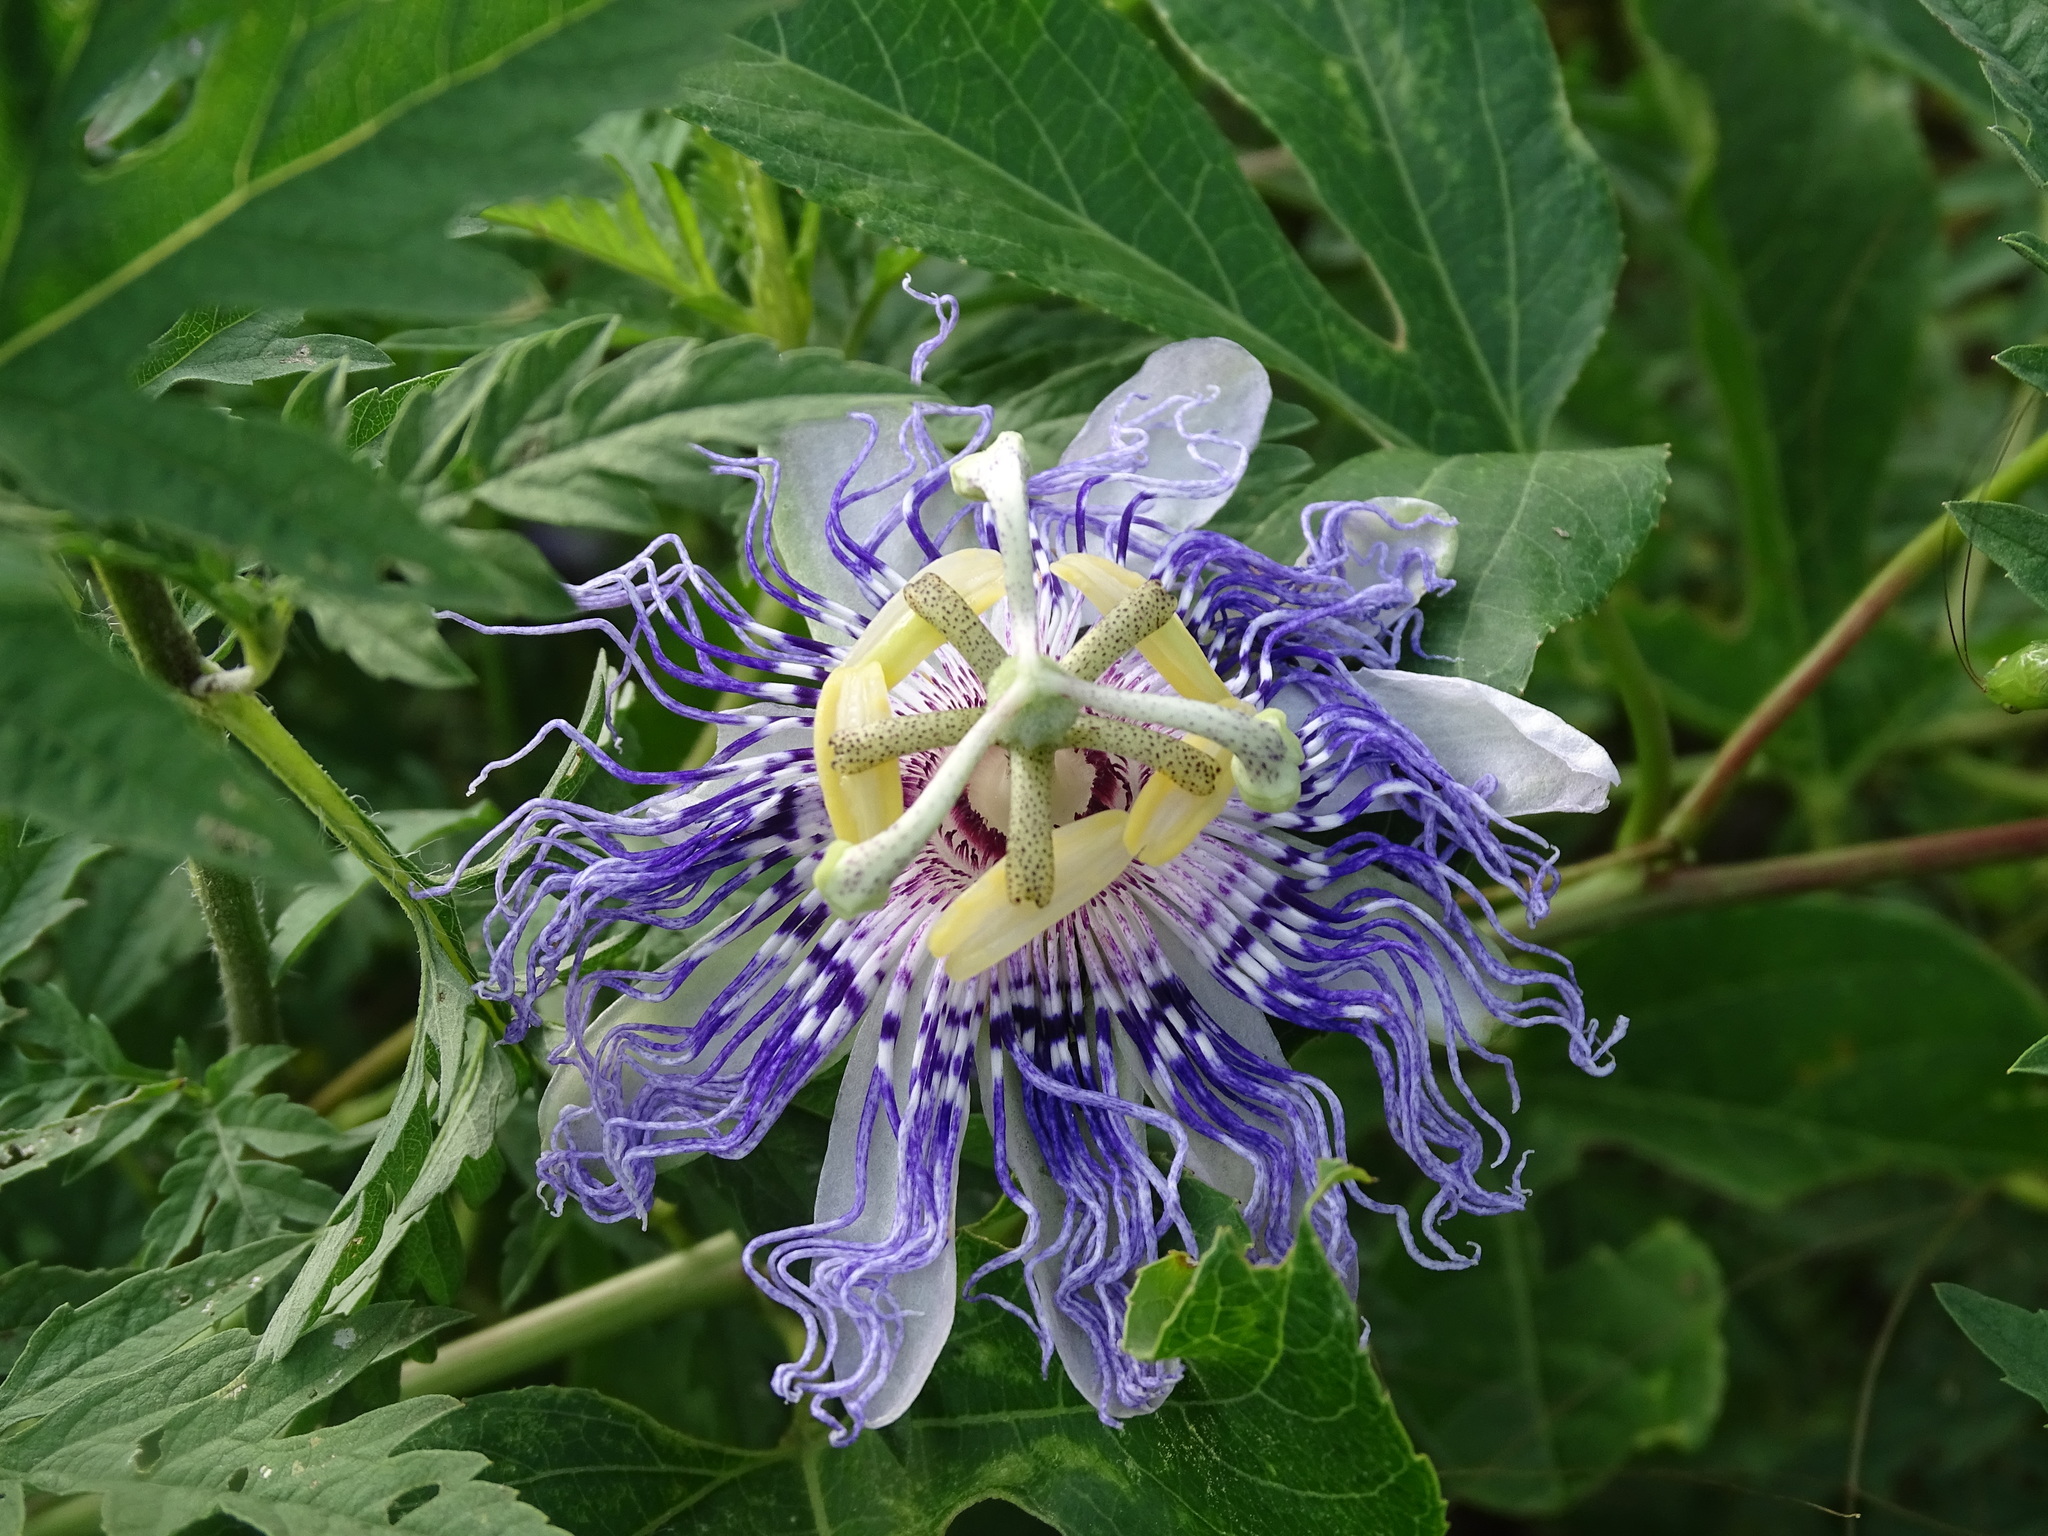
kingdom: Plantae
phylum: Tracheophyta
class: Magnoliopsida
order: Malpighiales
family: Passifloraceae
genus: Passiflora
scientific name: Passiflora incarnata
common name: Apricot-vine
